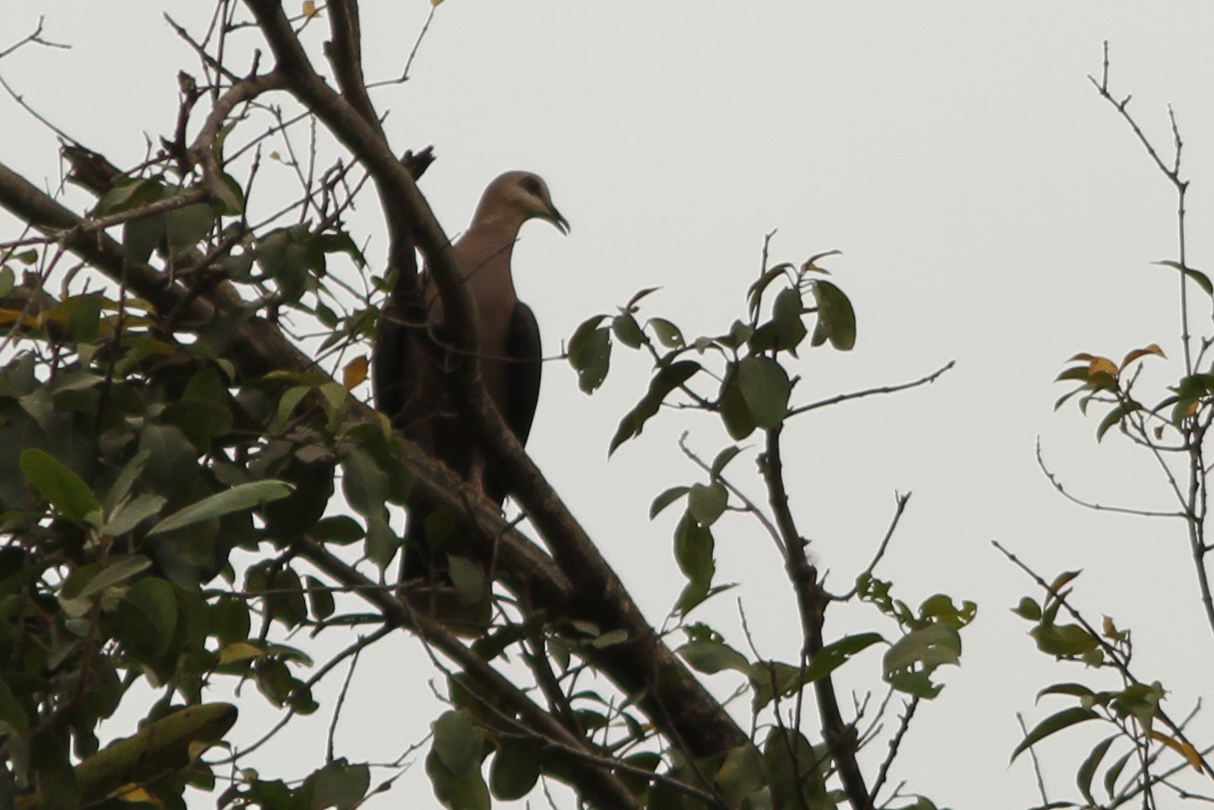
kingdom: Animalia
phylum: Chordata
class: Aves
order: Columbiformes
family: Columbidae
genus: Streptopelia
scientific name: Streptopelia semitorquata
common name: Red-eyed dove
